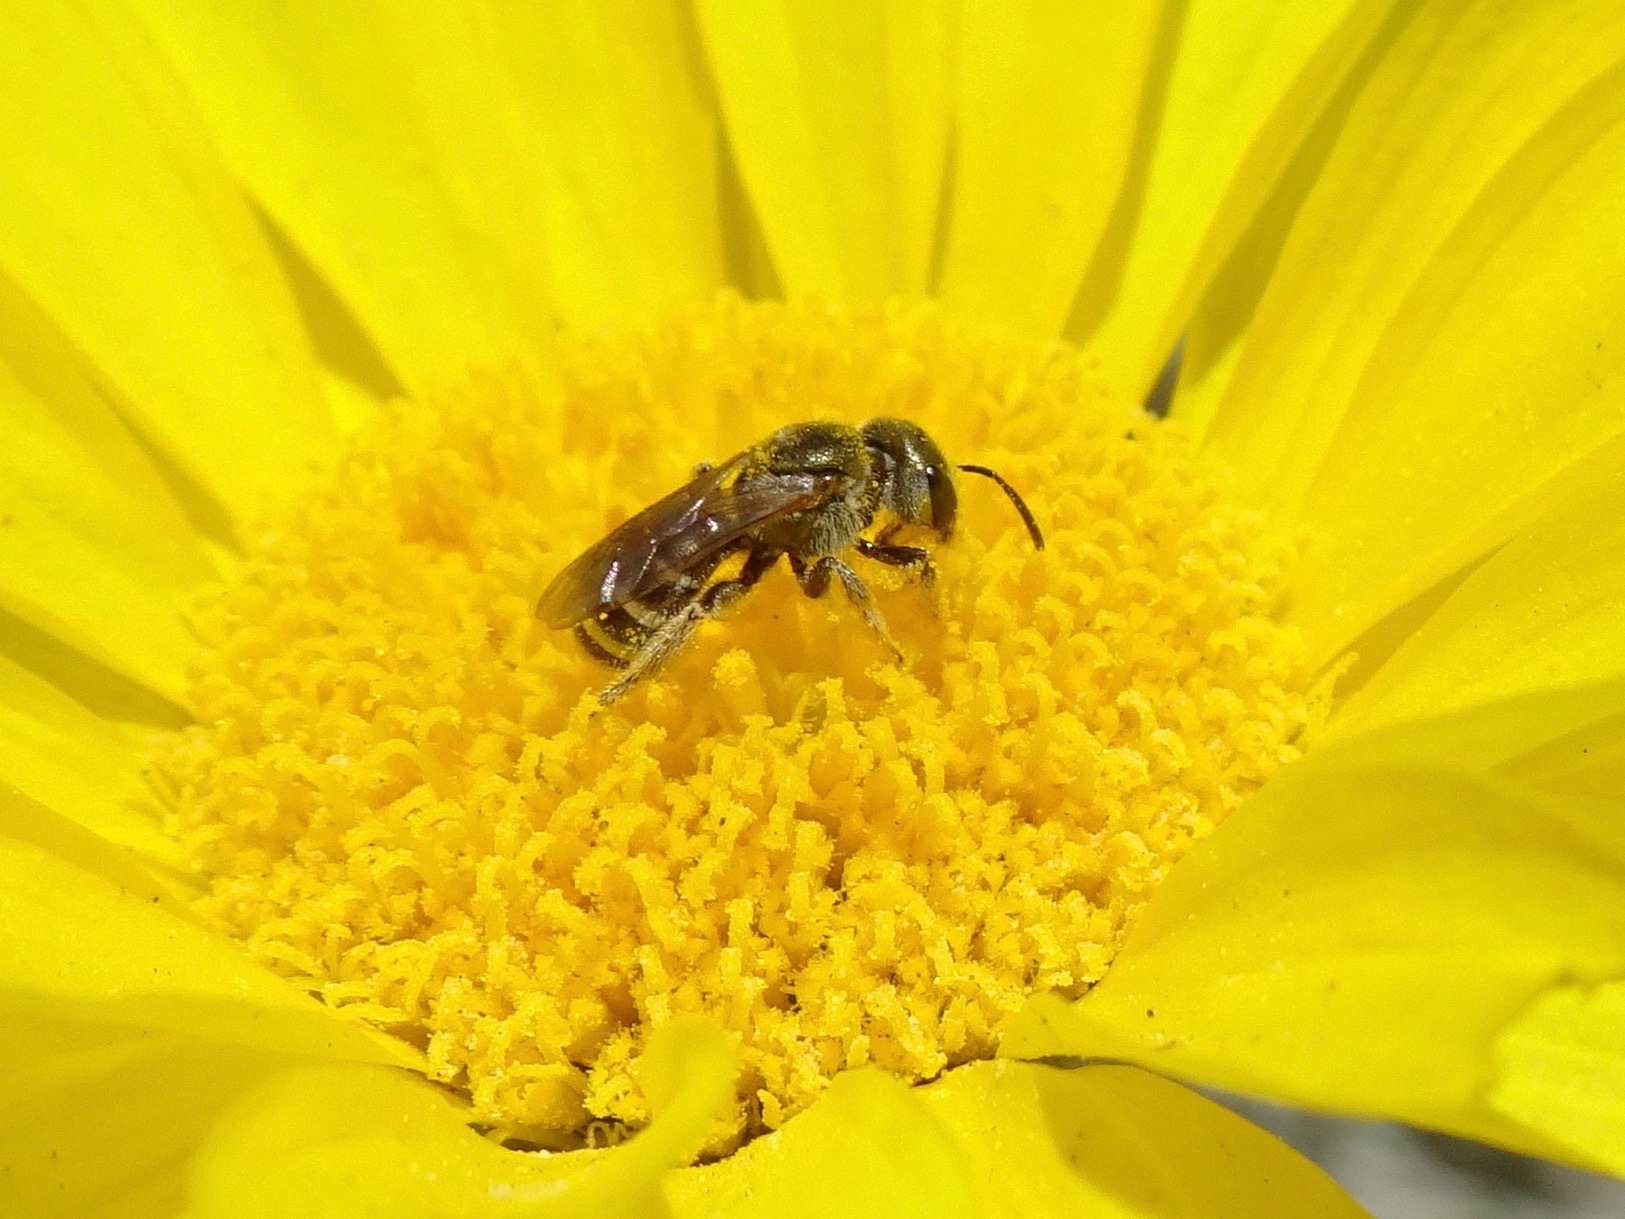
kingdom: Animalia
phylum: Arthropoda
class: Insecta
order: Hymenoptera
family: Halictidae
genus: Halictus
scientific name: Halictus tripartitus
